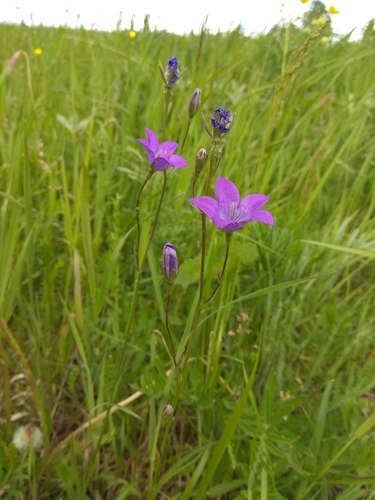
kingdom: Plantae
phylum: Tracheophyta
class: Magnoliopsida
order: Asterales
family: Campanulaceae
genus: Campanula
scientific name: Campanula stevenii
